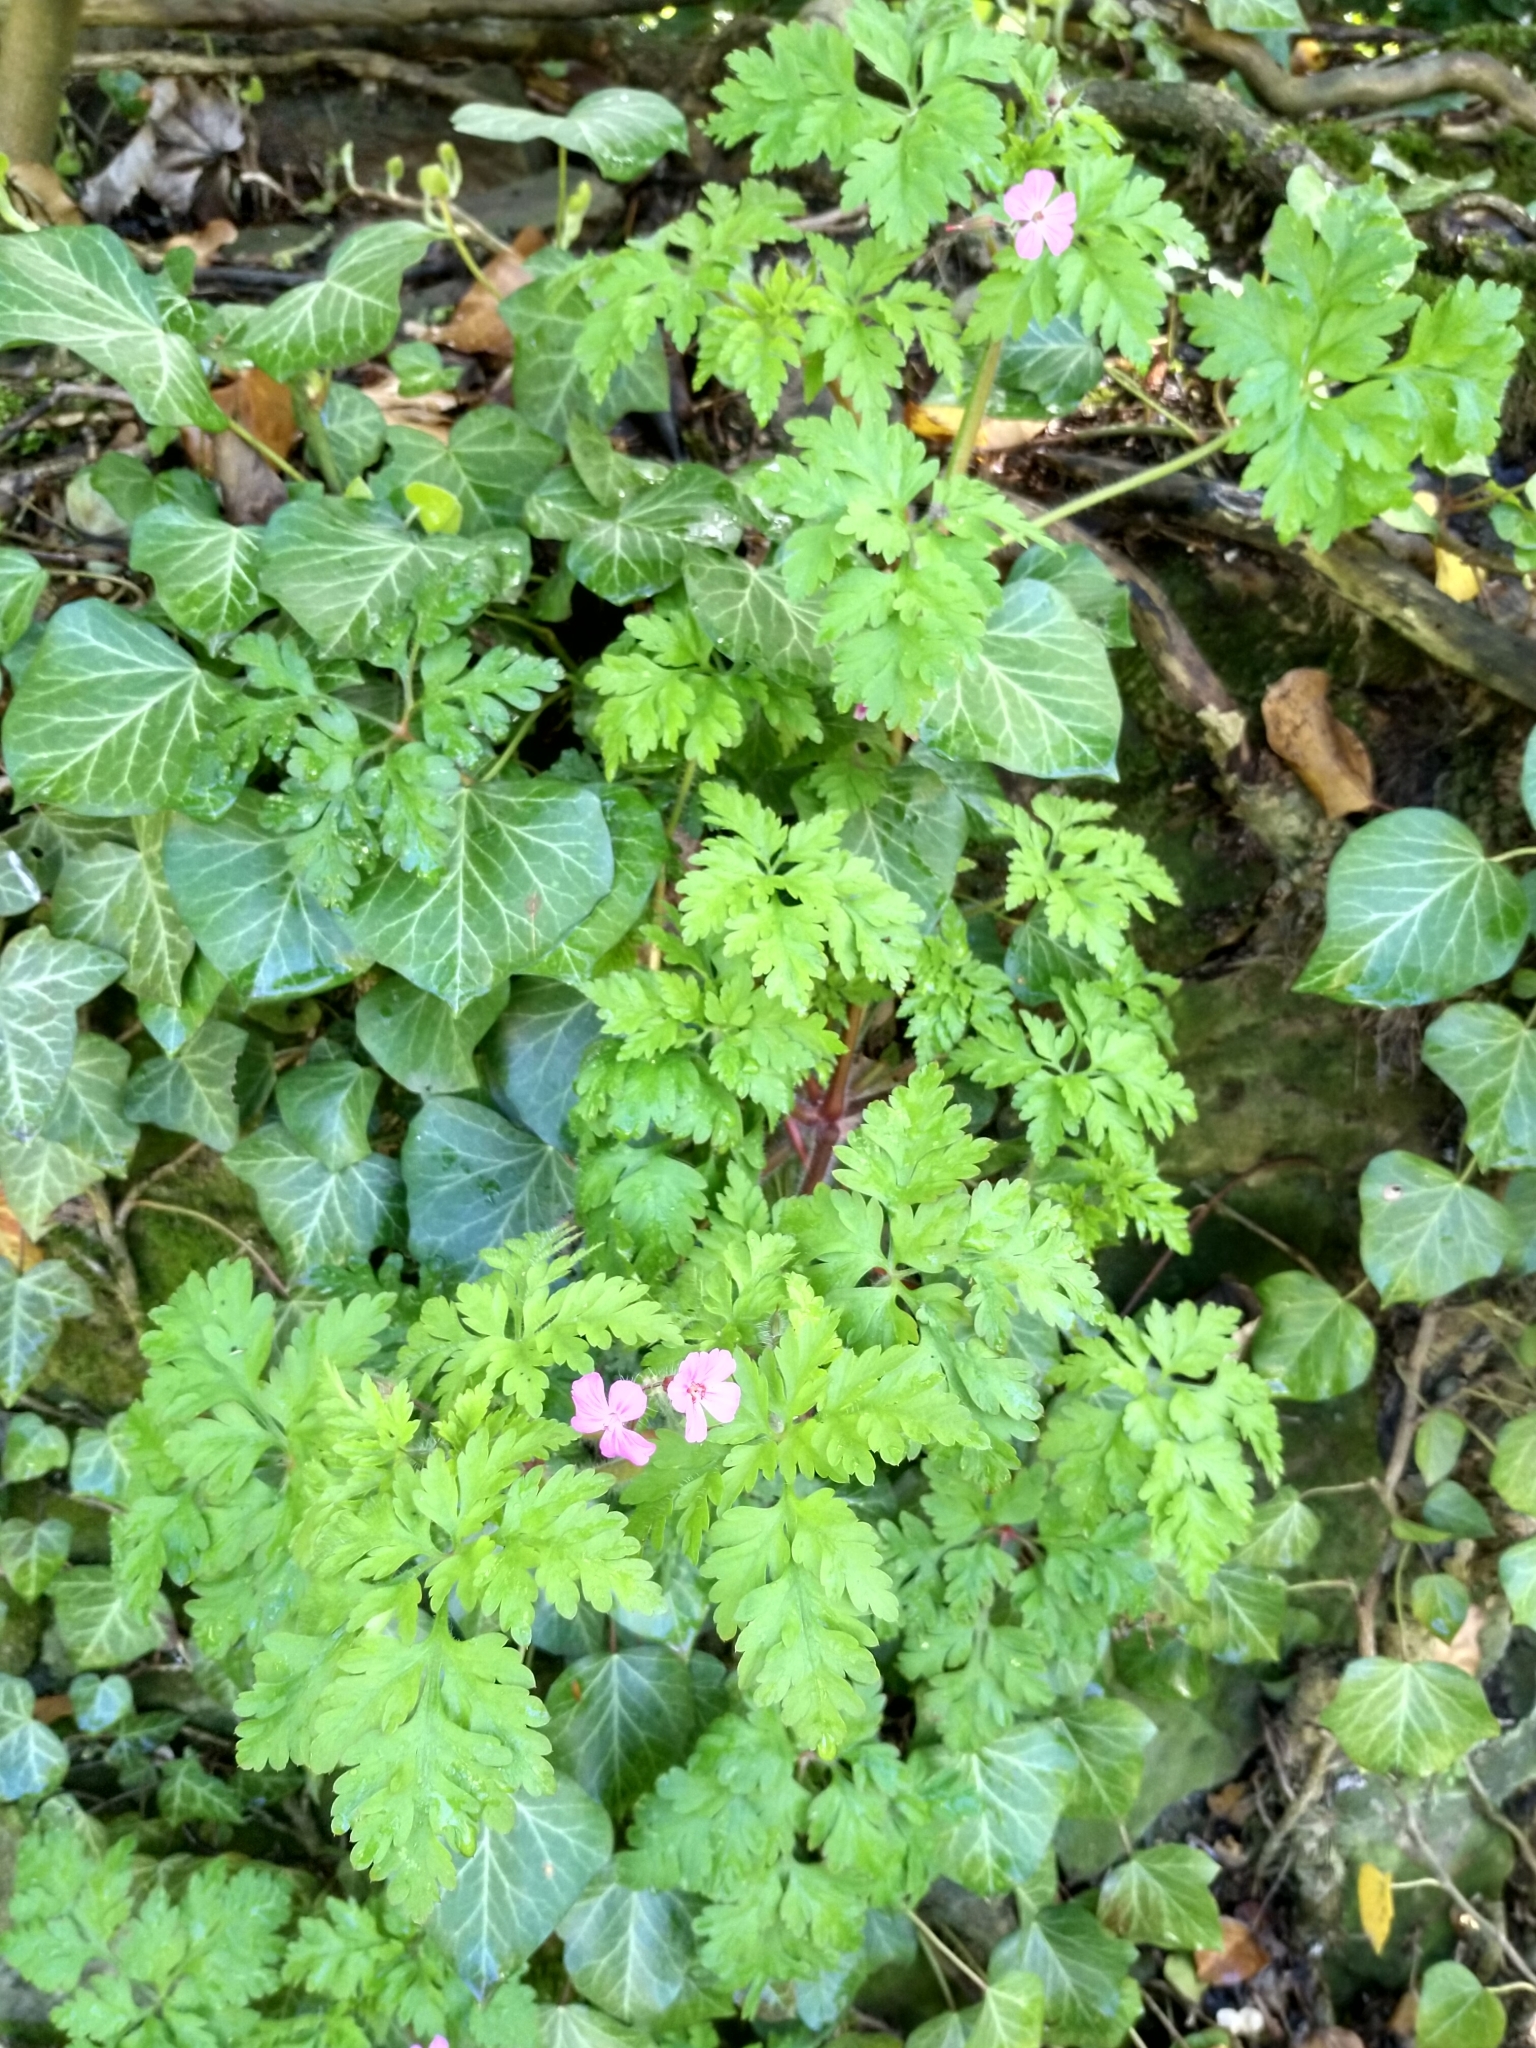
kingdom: Plantae
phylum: Tracheophyta
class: Magnoliopsida
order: Geraniales
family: Geraniaceae
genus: Geranium
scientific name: Geranium robertianum
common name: Herb-robert
